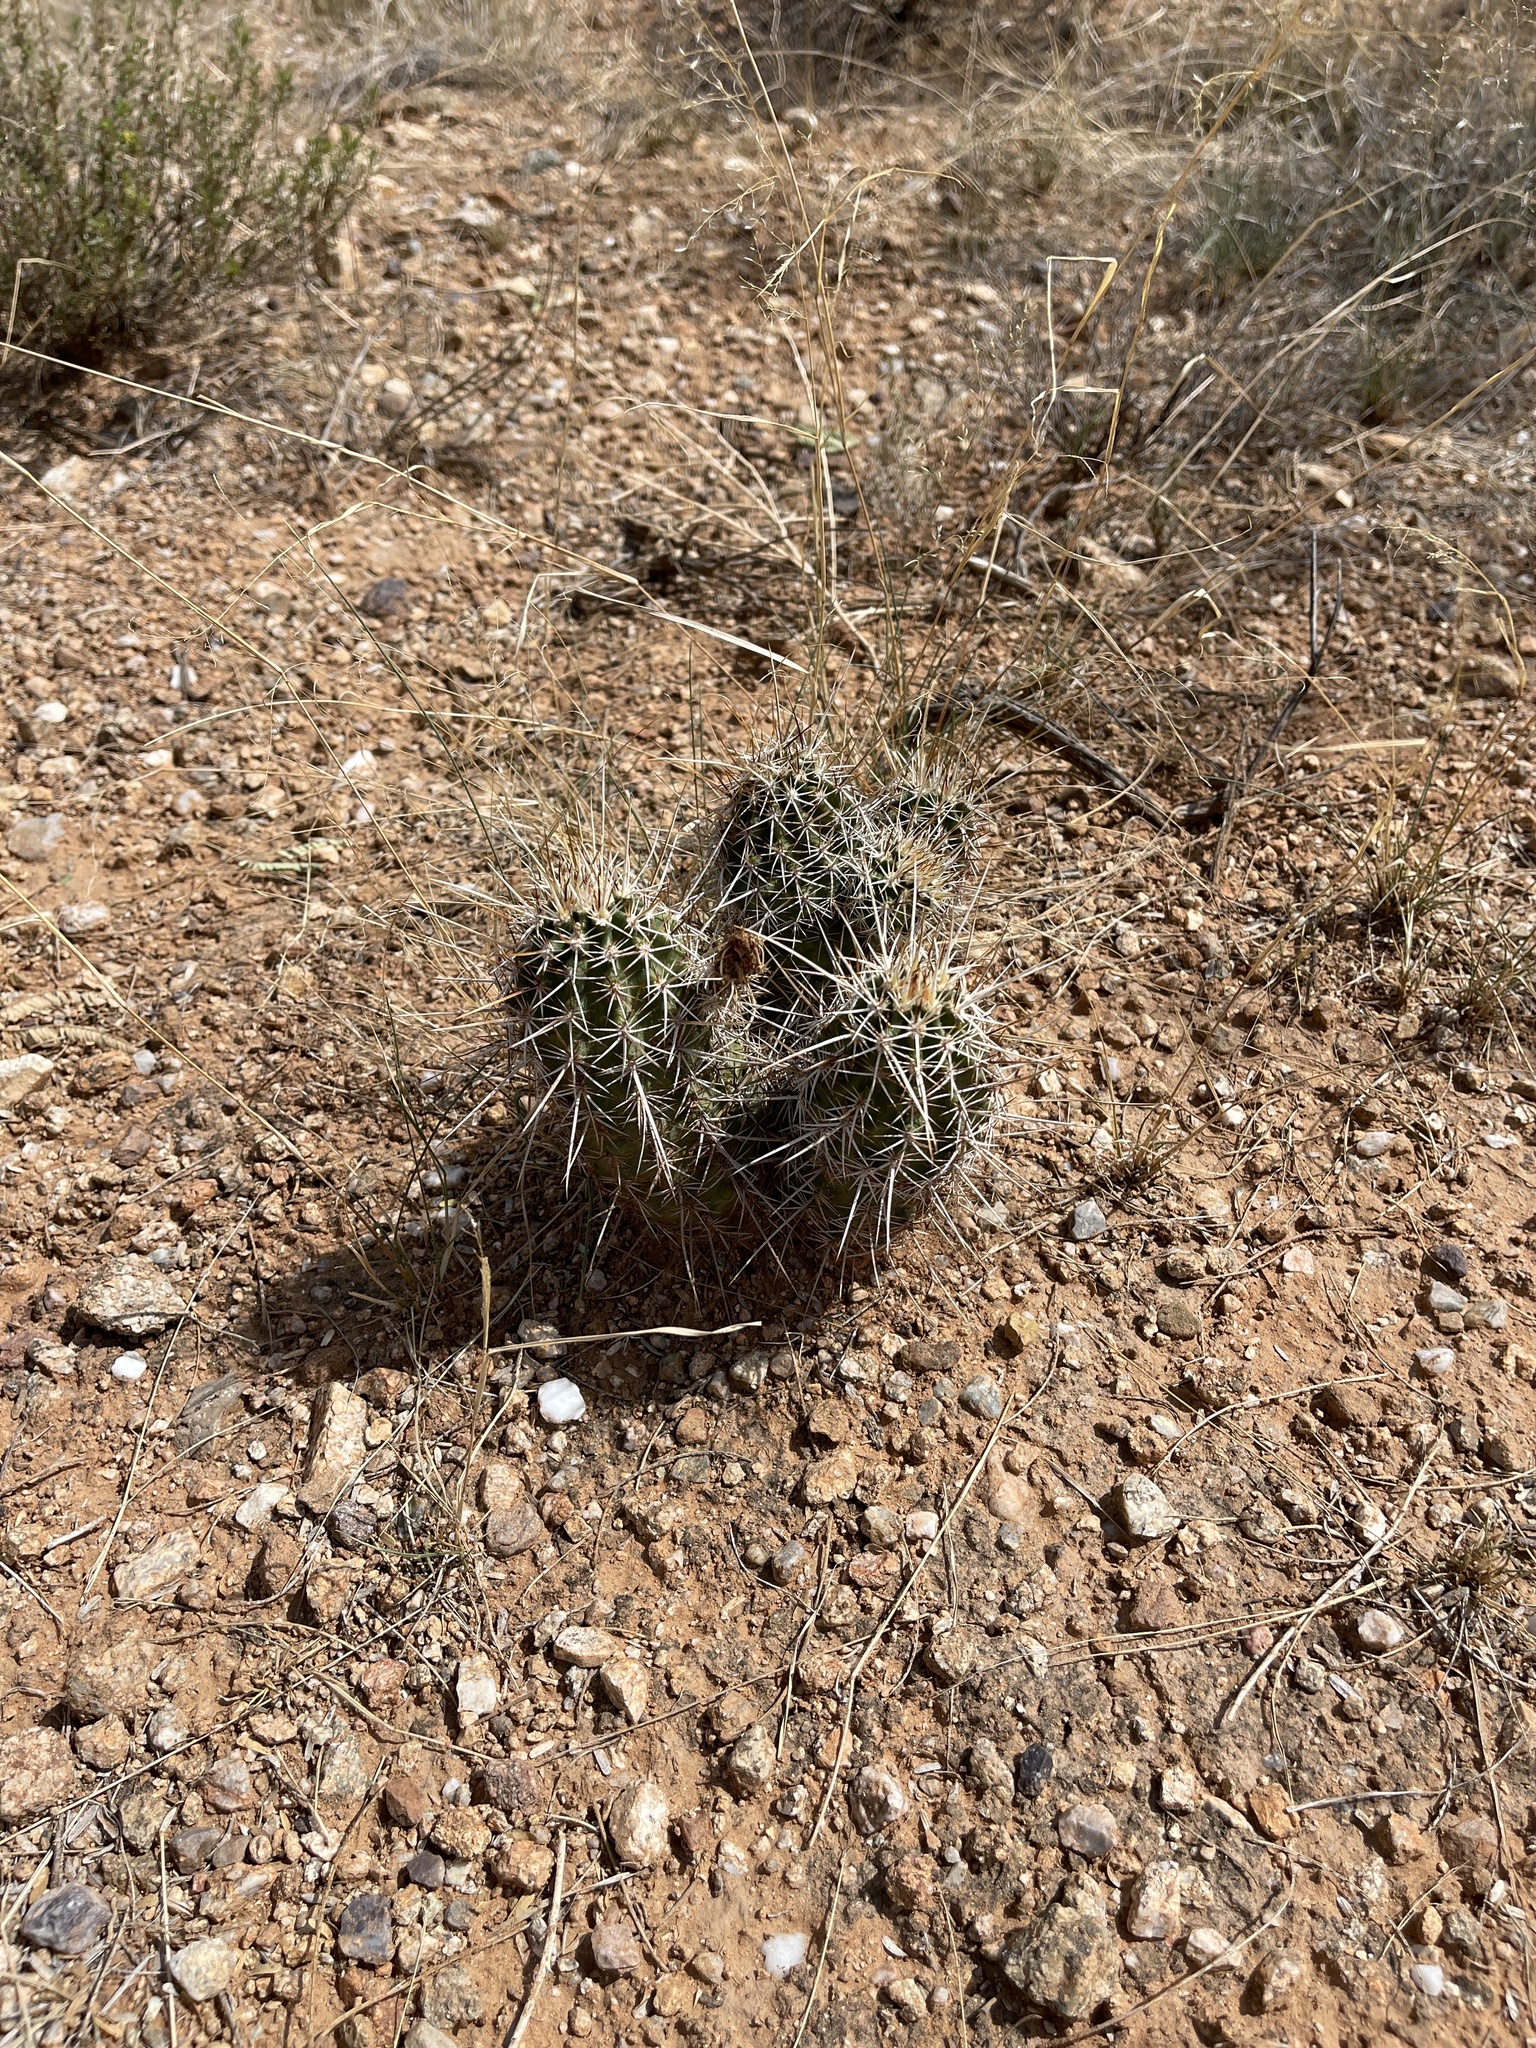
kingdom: Plantae
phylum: Tracheophyta
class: Magnoliopsida
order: Caryophyllales
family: Cactaceae
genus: Echinocereus
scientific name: Echinocereus fasciculatus
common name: Bundle hedgehog
